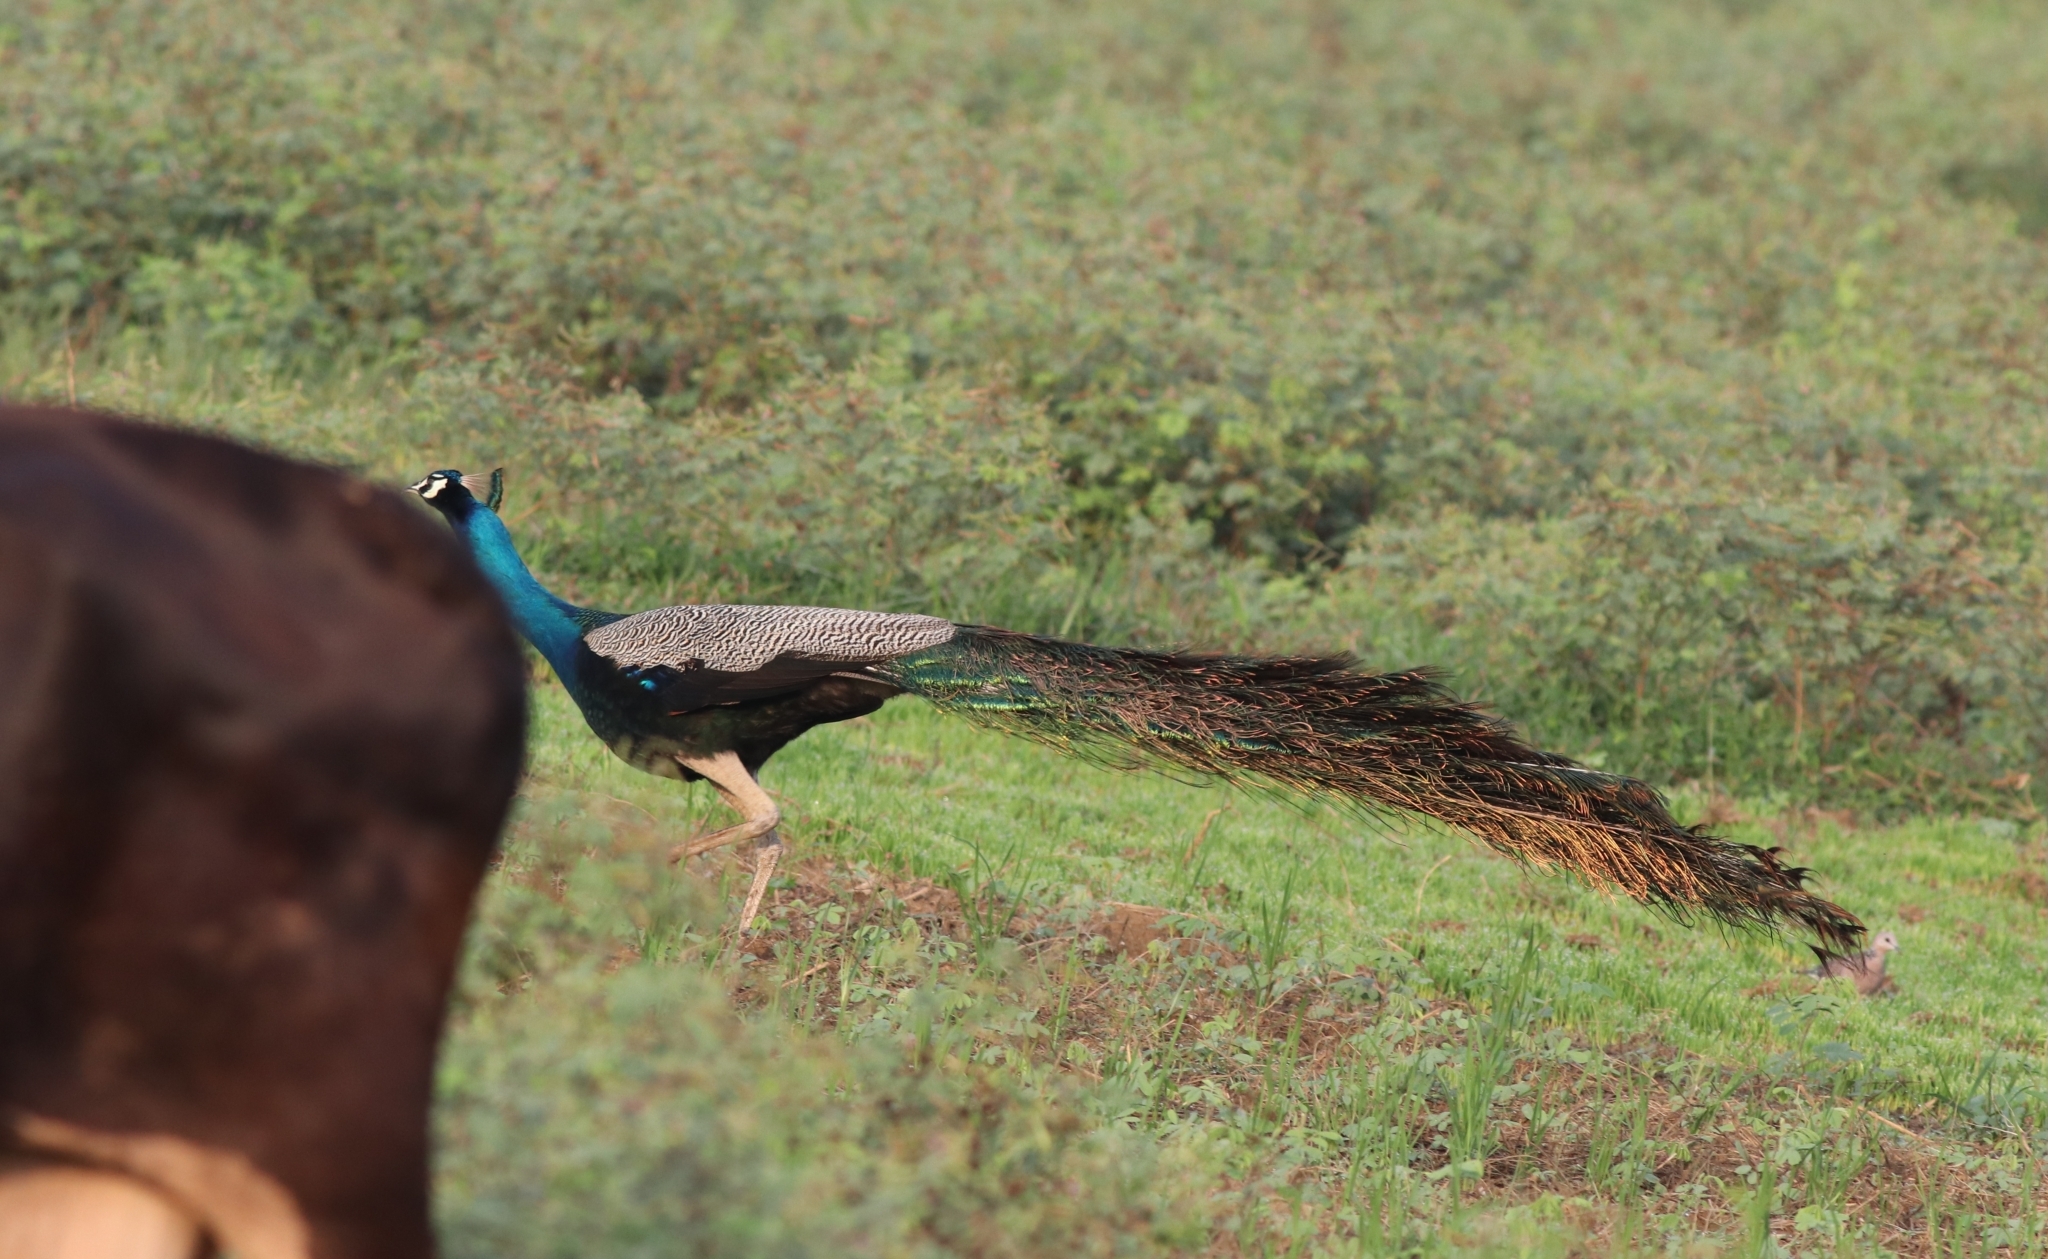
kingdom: Animalia
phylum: Chordata
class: Aves
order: Galliformes
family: Phasianidae
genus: Pavo
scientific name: Pavo cristatus
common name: Indian peafowl
